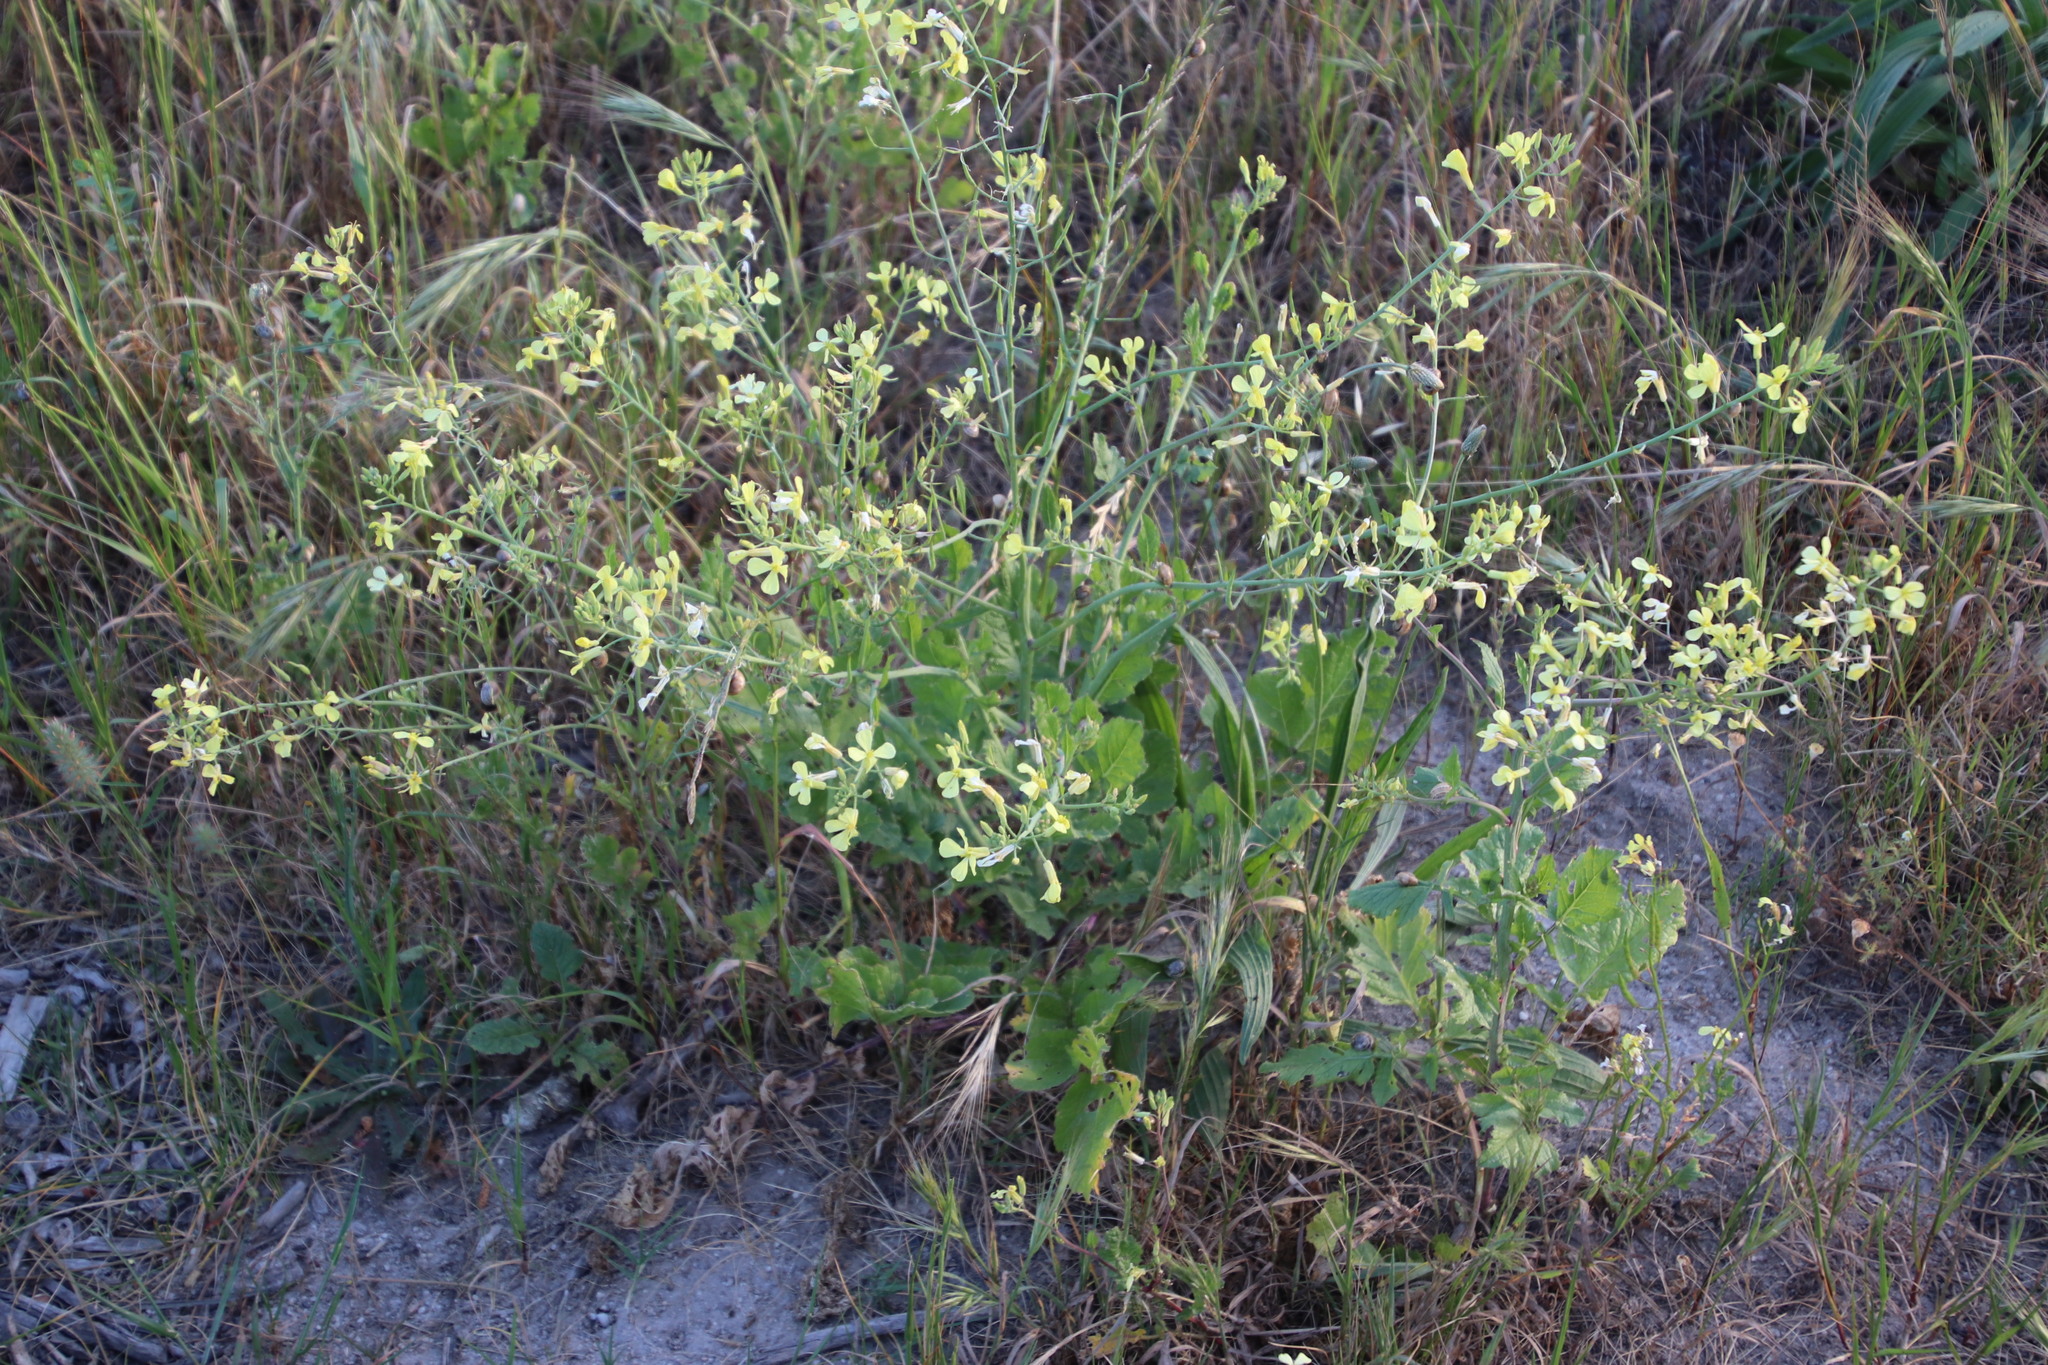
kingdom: Plantae
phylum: Tracheophyta
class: Magnoliopsida
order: Brassicales
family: Brassicaceae
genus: Raphanus
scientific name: Raphanus raphanistrum
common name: Wild radish
